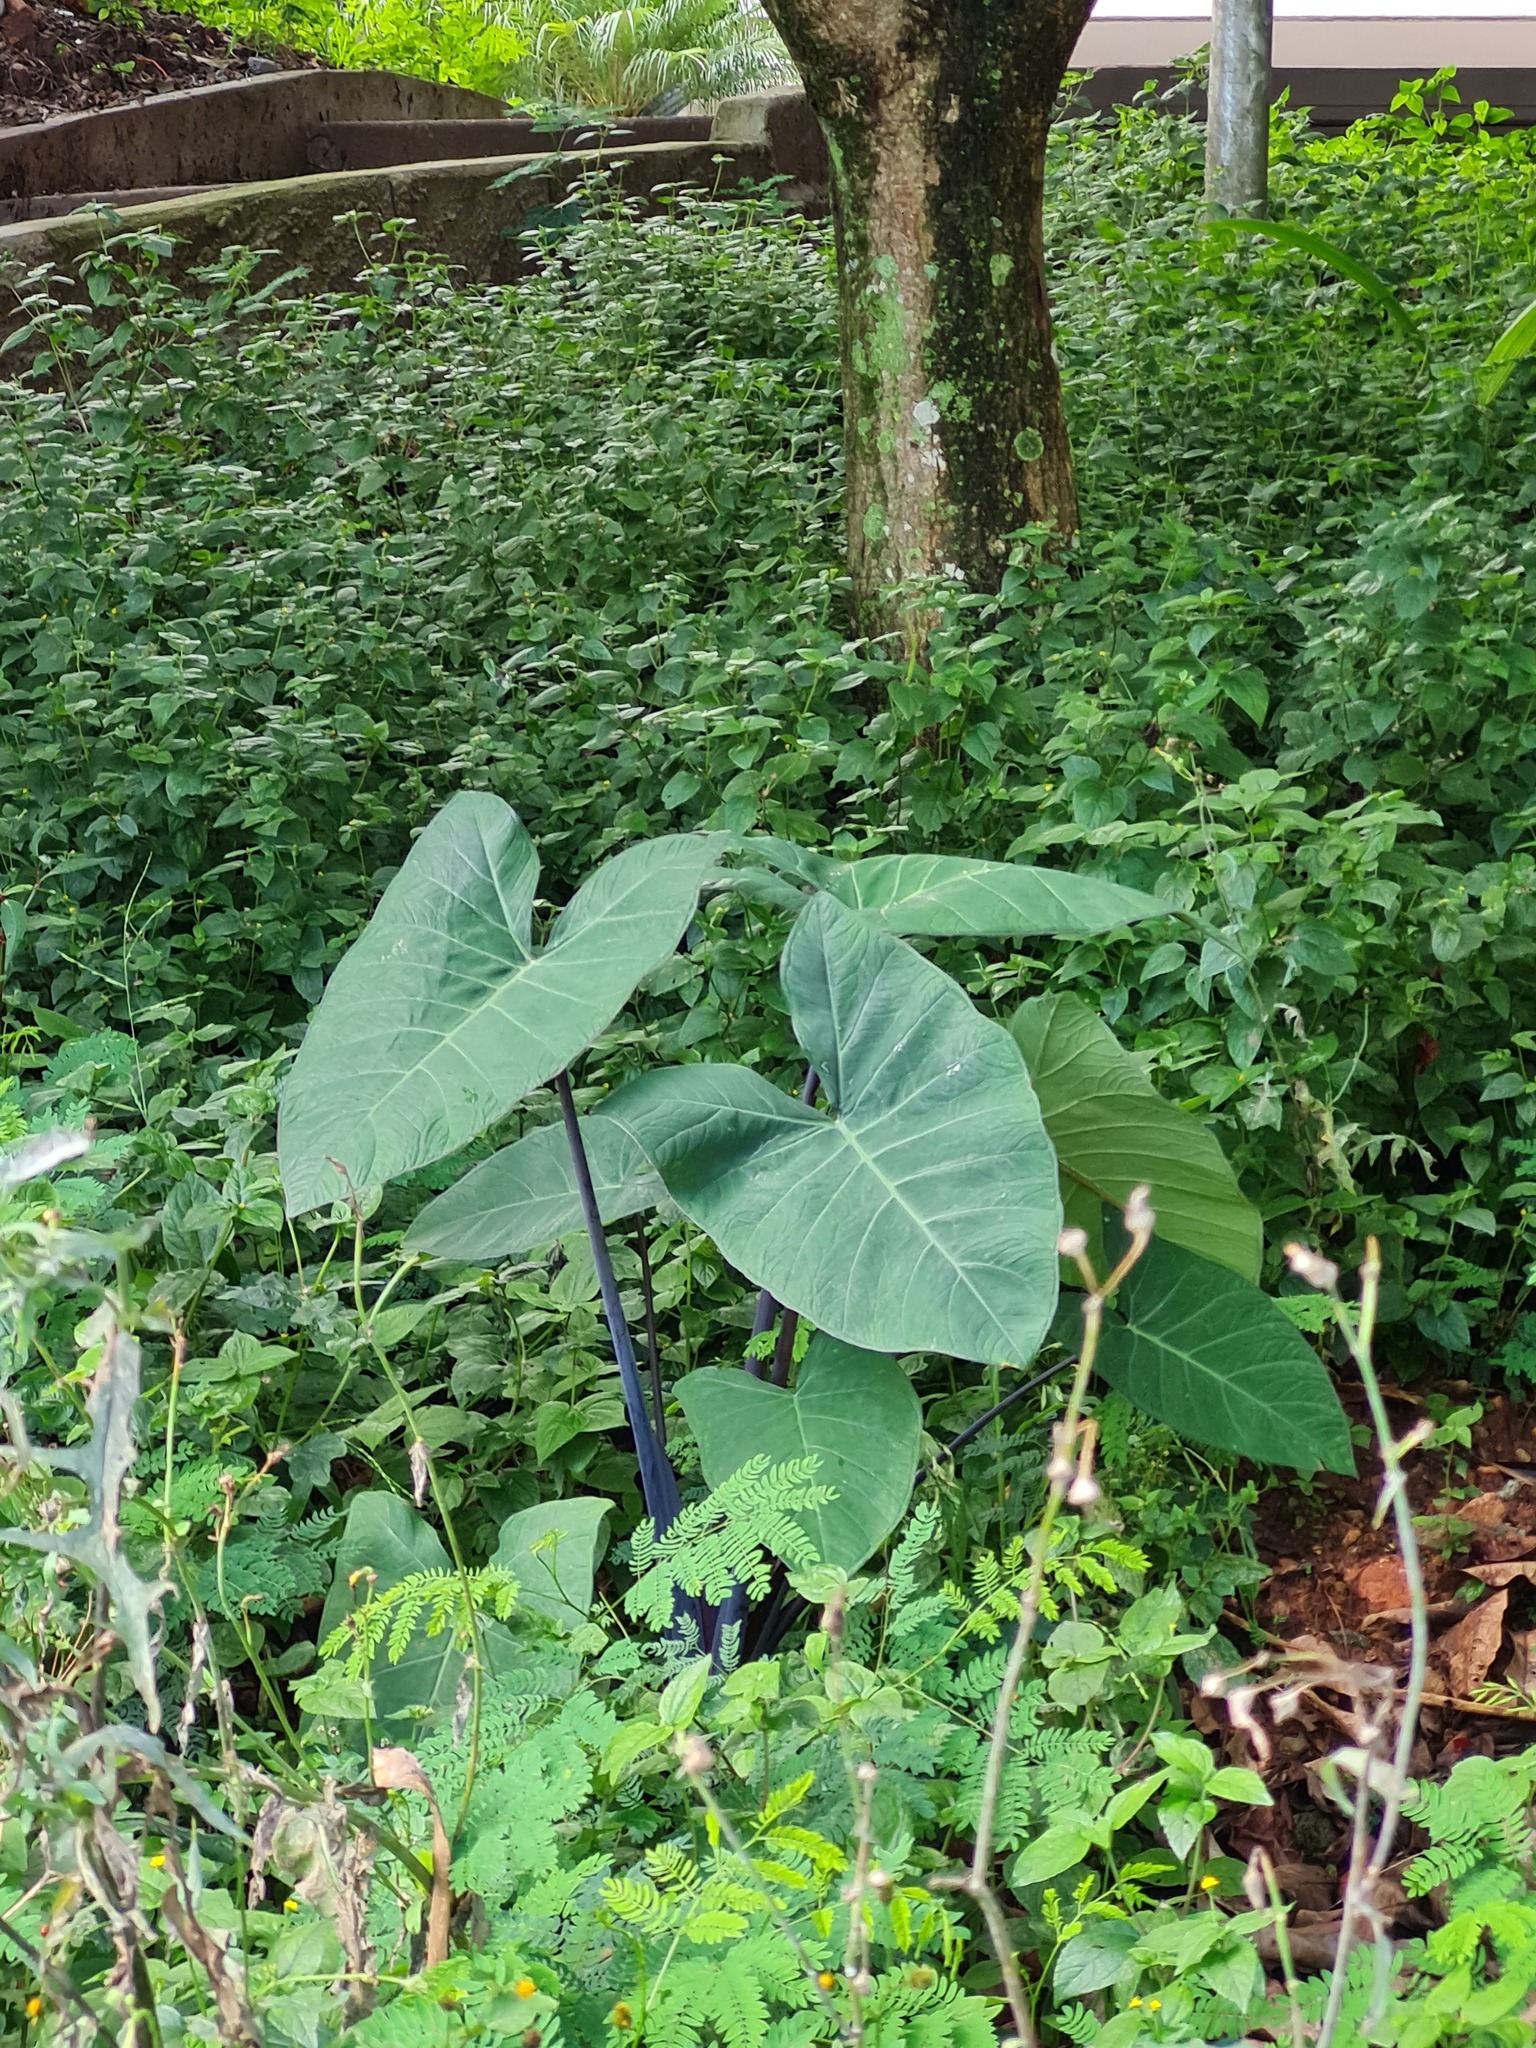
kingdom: Plantae
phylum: Tracheophyta
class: Liliopsida
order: Alismatales
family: Araceae
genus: Xanthosoma
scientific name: Xanthosoma sagittifolium
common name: Arrowleaf elephant's ear
